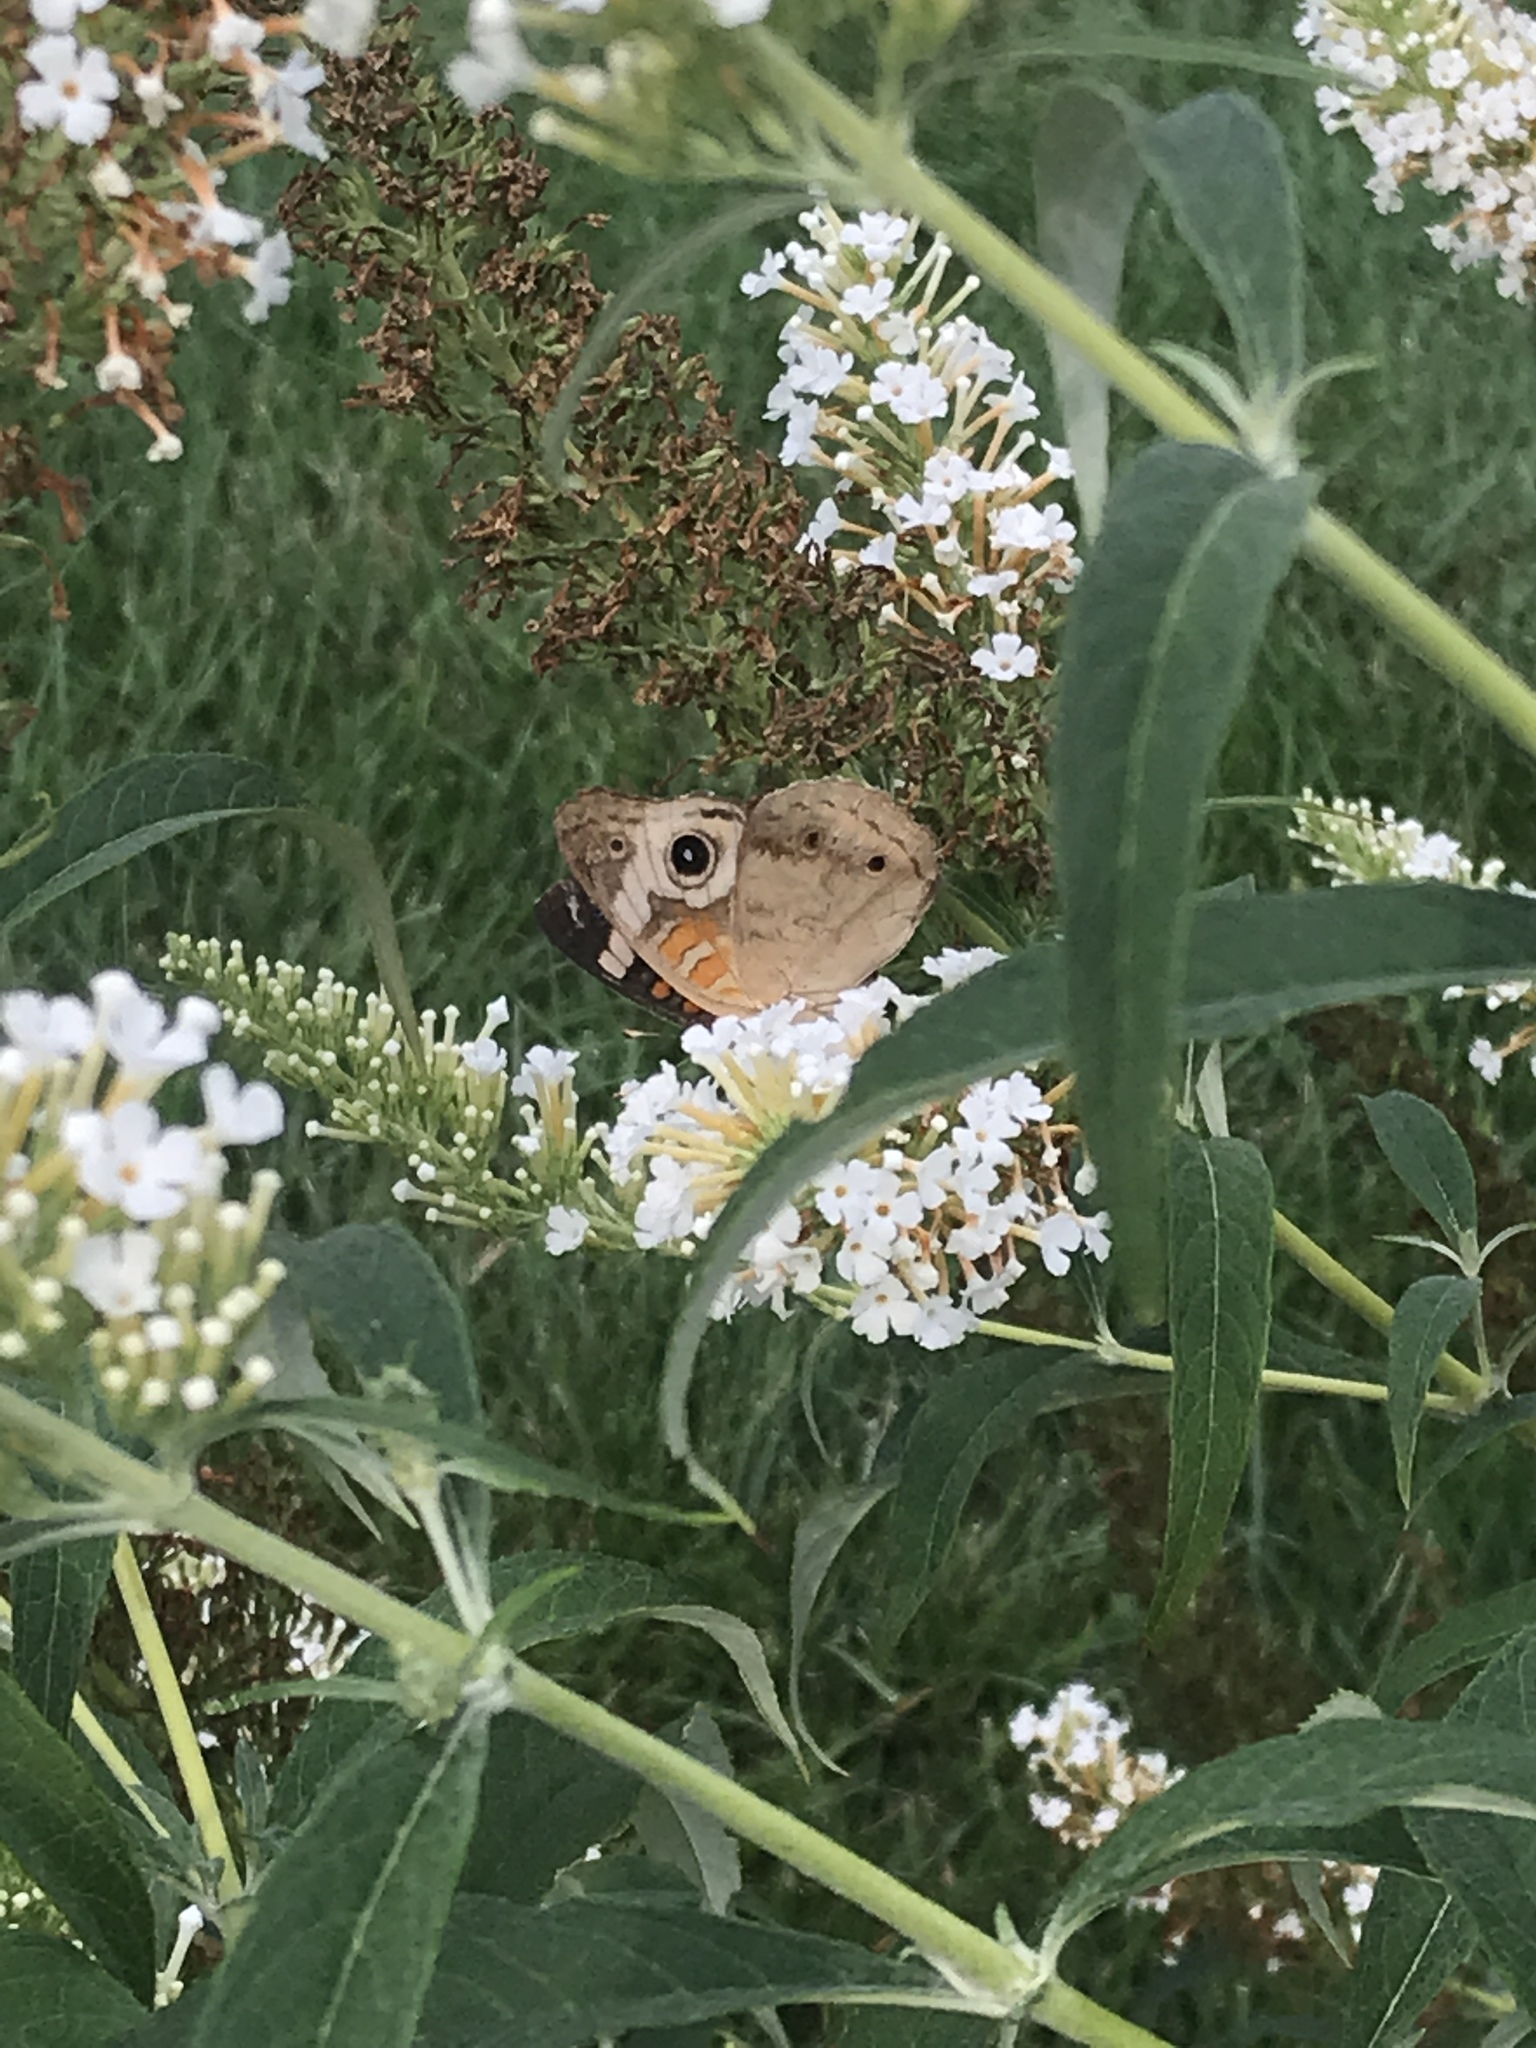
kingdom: Animalia
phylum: Arthropoda
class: Insecta
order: Lepidoptera
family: Nymphalidae
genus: Junonia
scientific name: Junonia coenia
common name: Common buckeye
